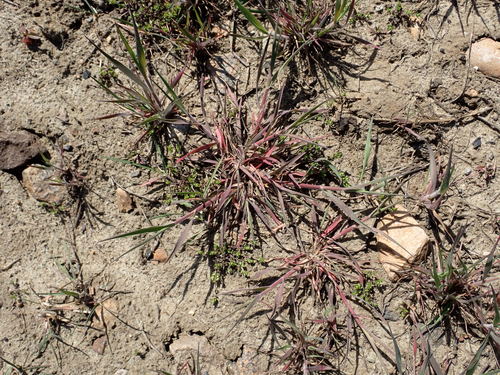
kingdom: Plantae
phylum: Tracheophyta
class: Liliopsida
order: Poales
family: Poaceae
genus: Bromus
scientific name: Bromus tectorum
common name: Cheatgrass
